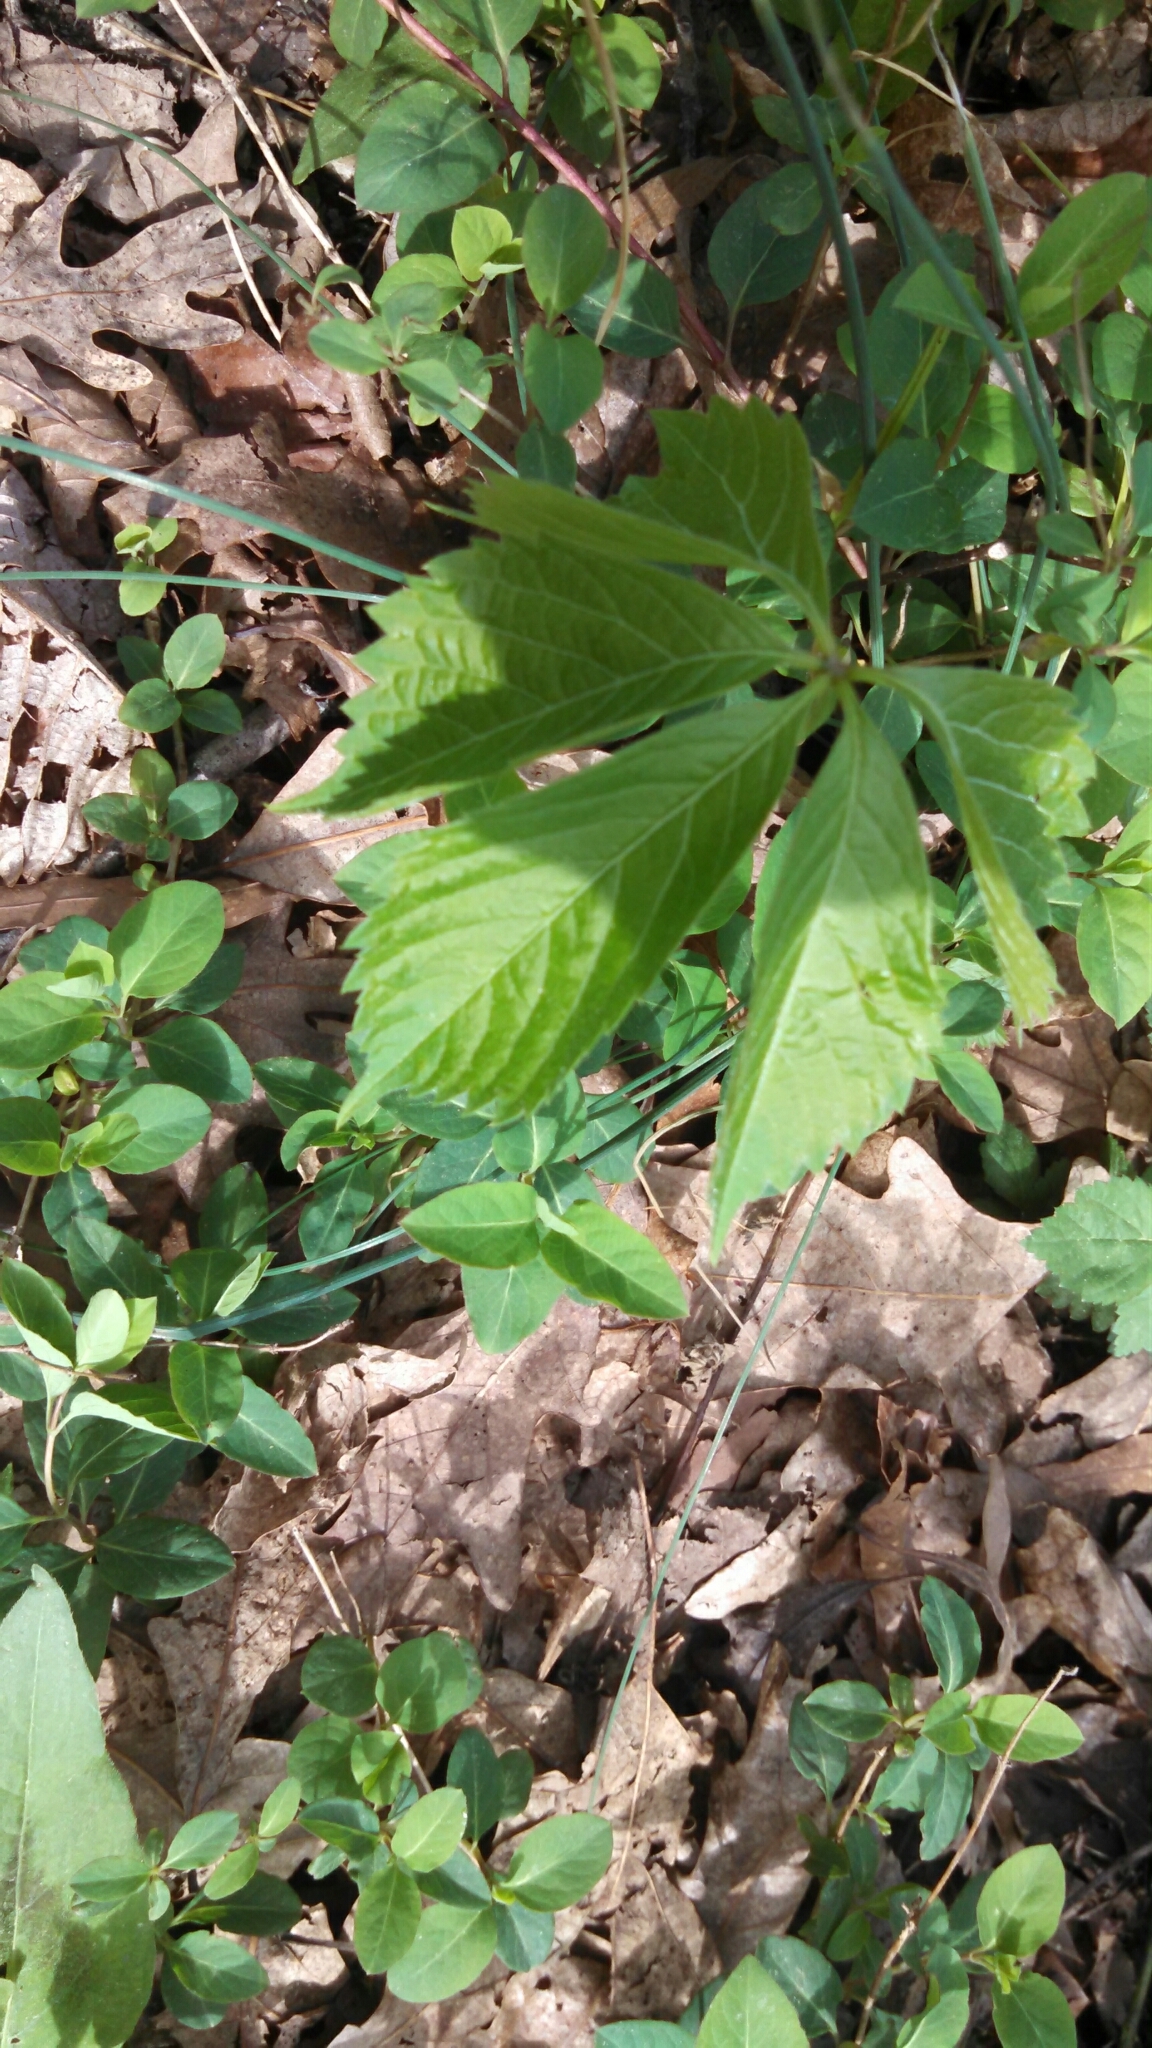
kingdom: Plantae
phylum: Tracheophyta
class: Magnoliopsida
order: Vitales
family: Vitaceae
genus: Parthenocissus
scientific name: Parthenocissus quinquefolia
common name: Virginia-creeper
